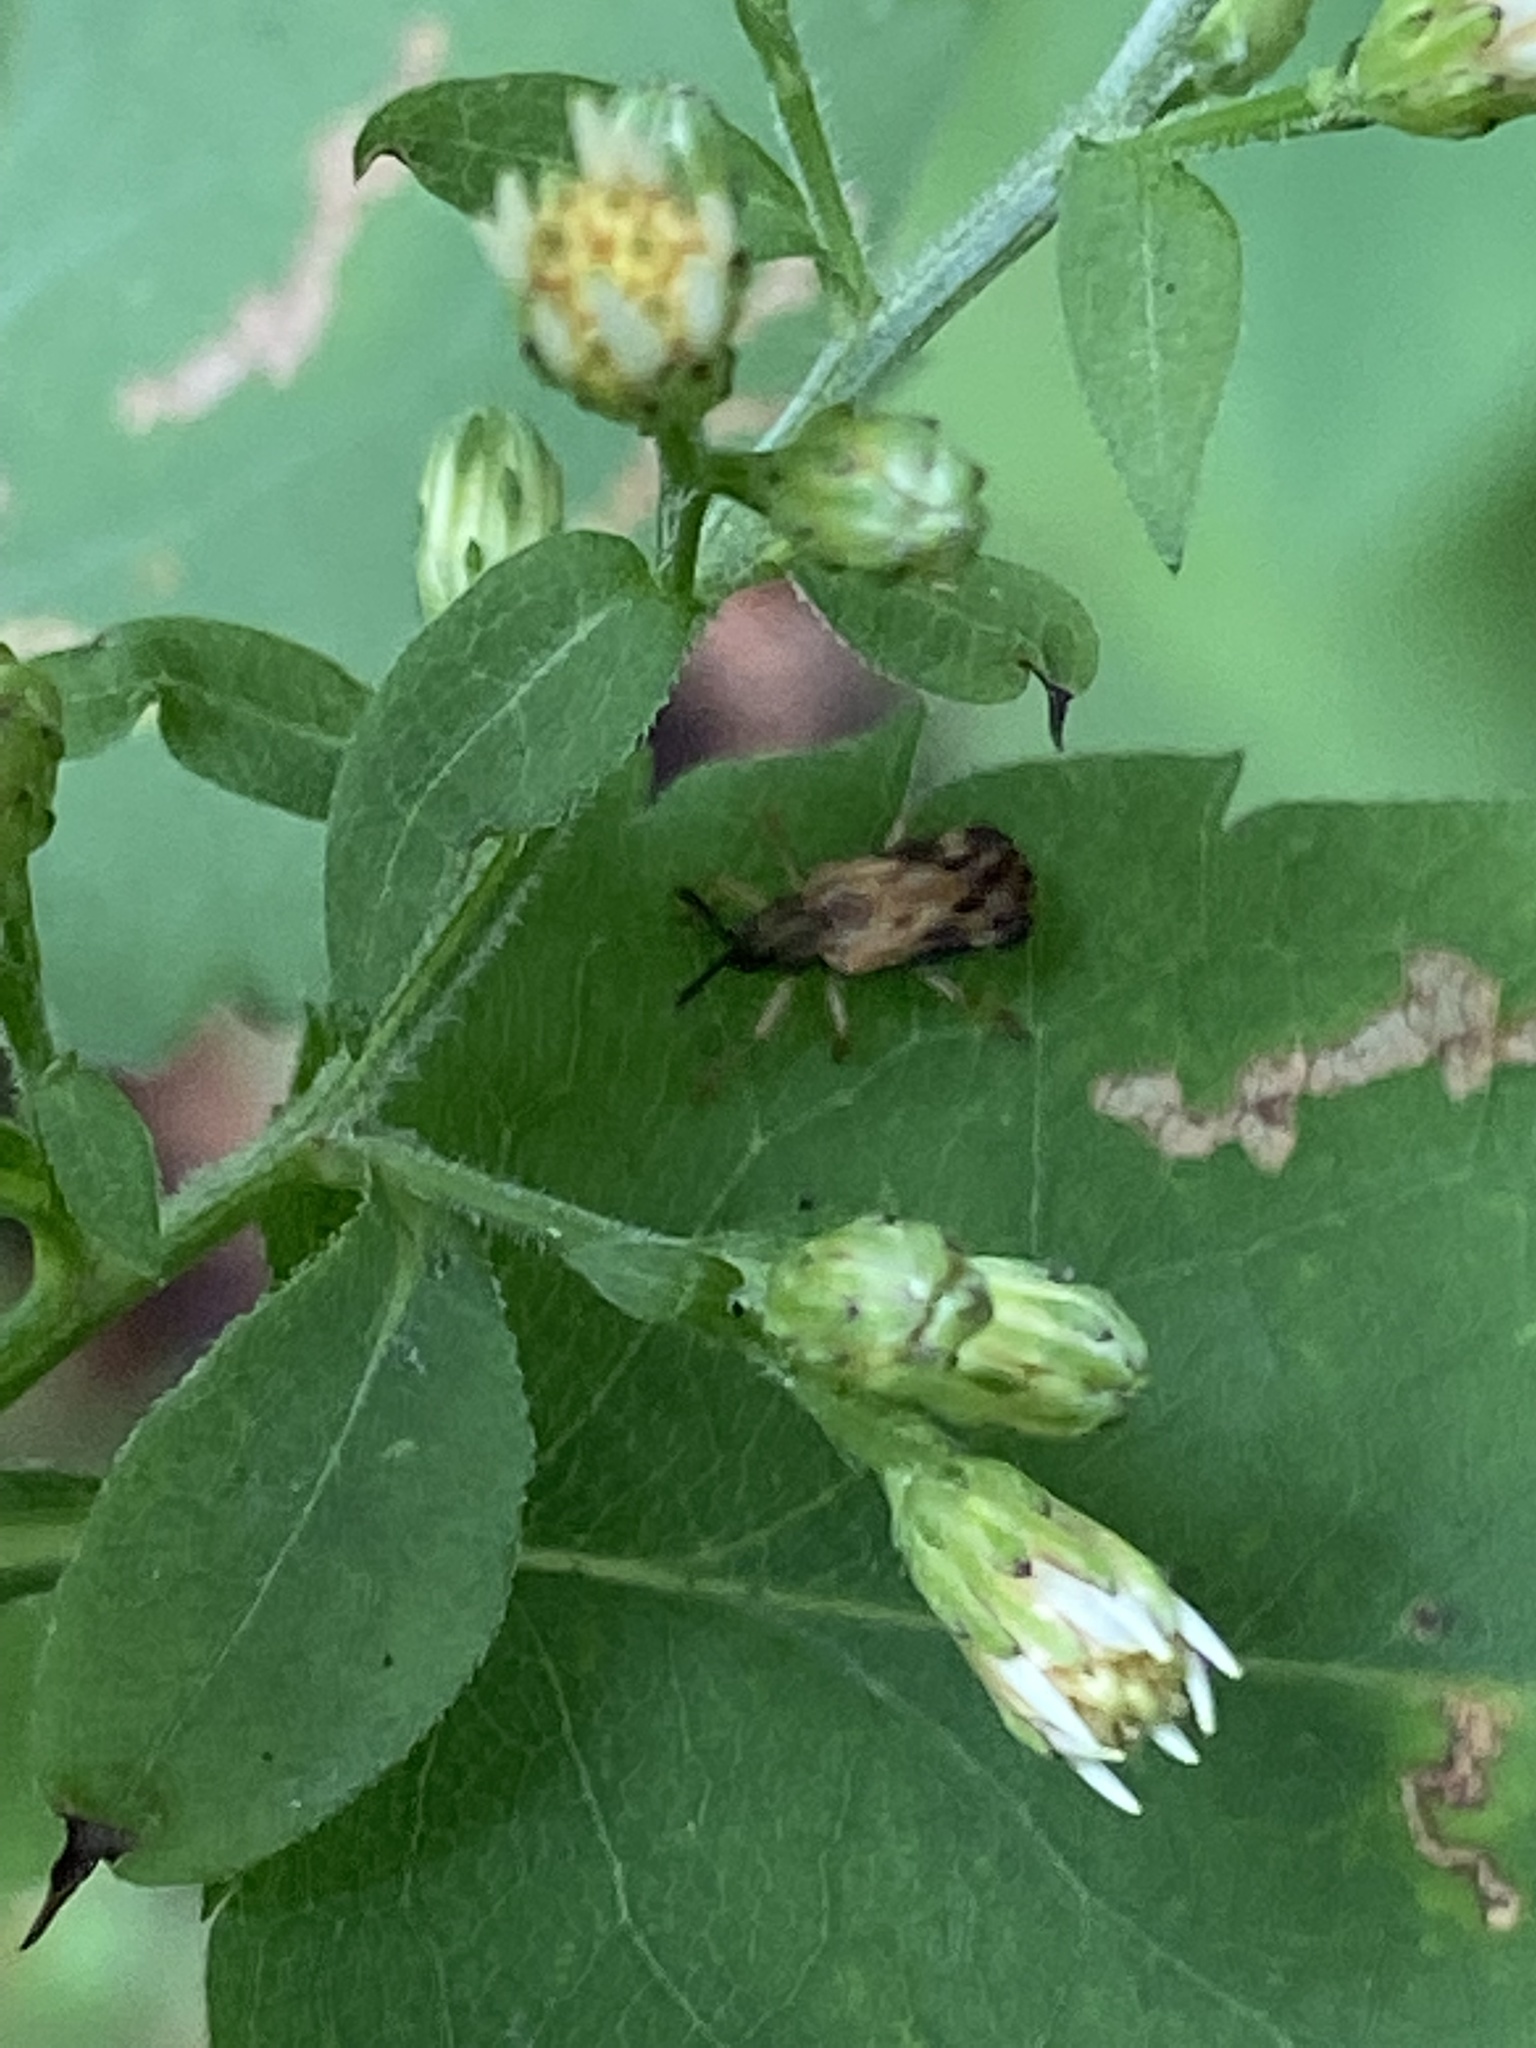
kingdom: Animalia
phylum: Arthropoda
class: Insecta
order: Coleoptera
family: Chrysomelidae
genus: Sumitrosis
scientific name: Sumitrosis inaequalis
